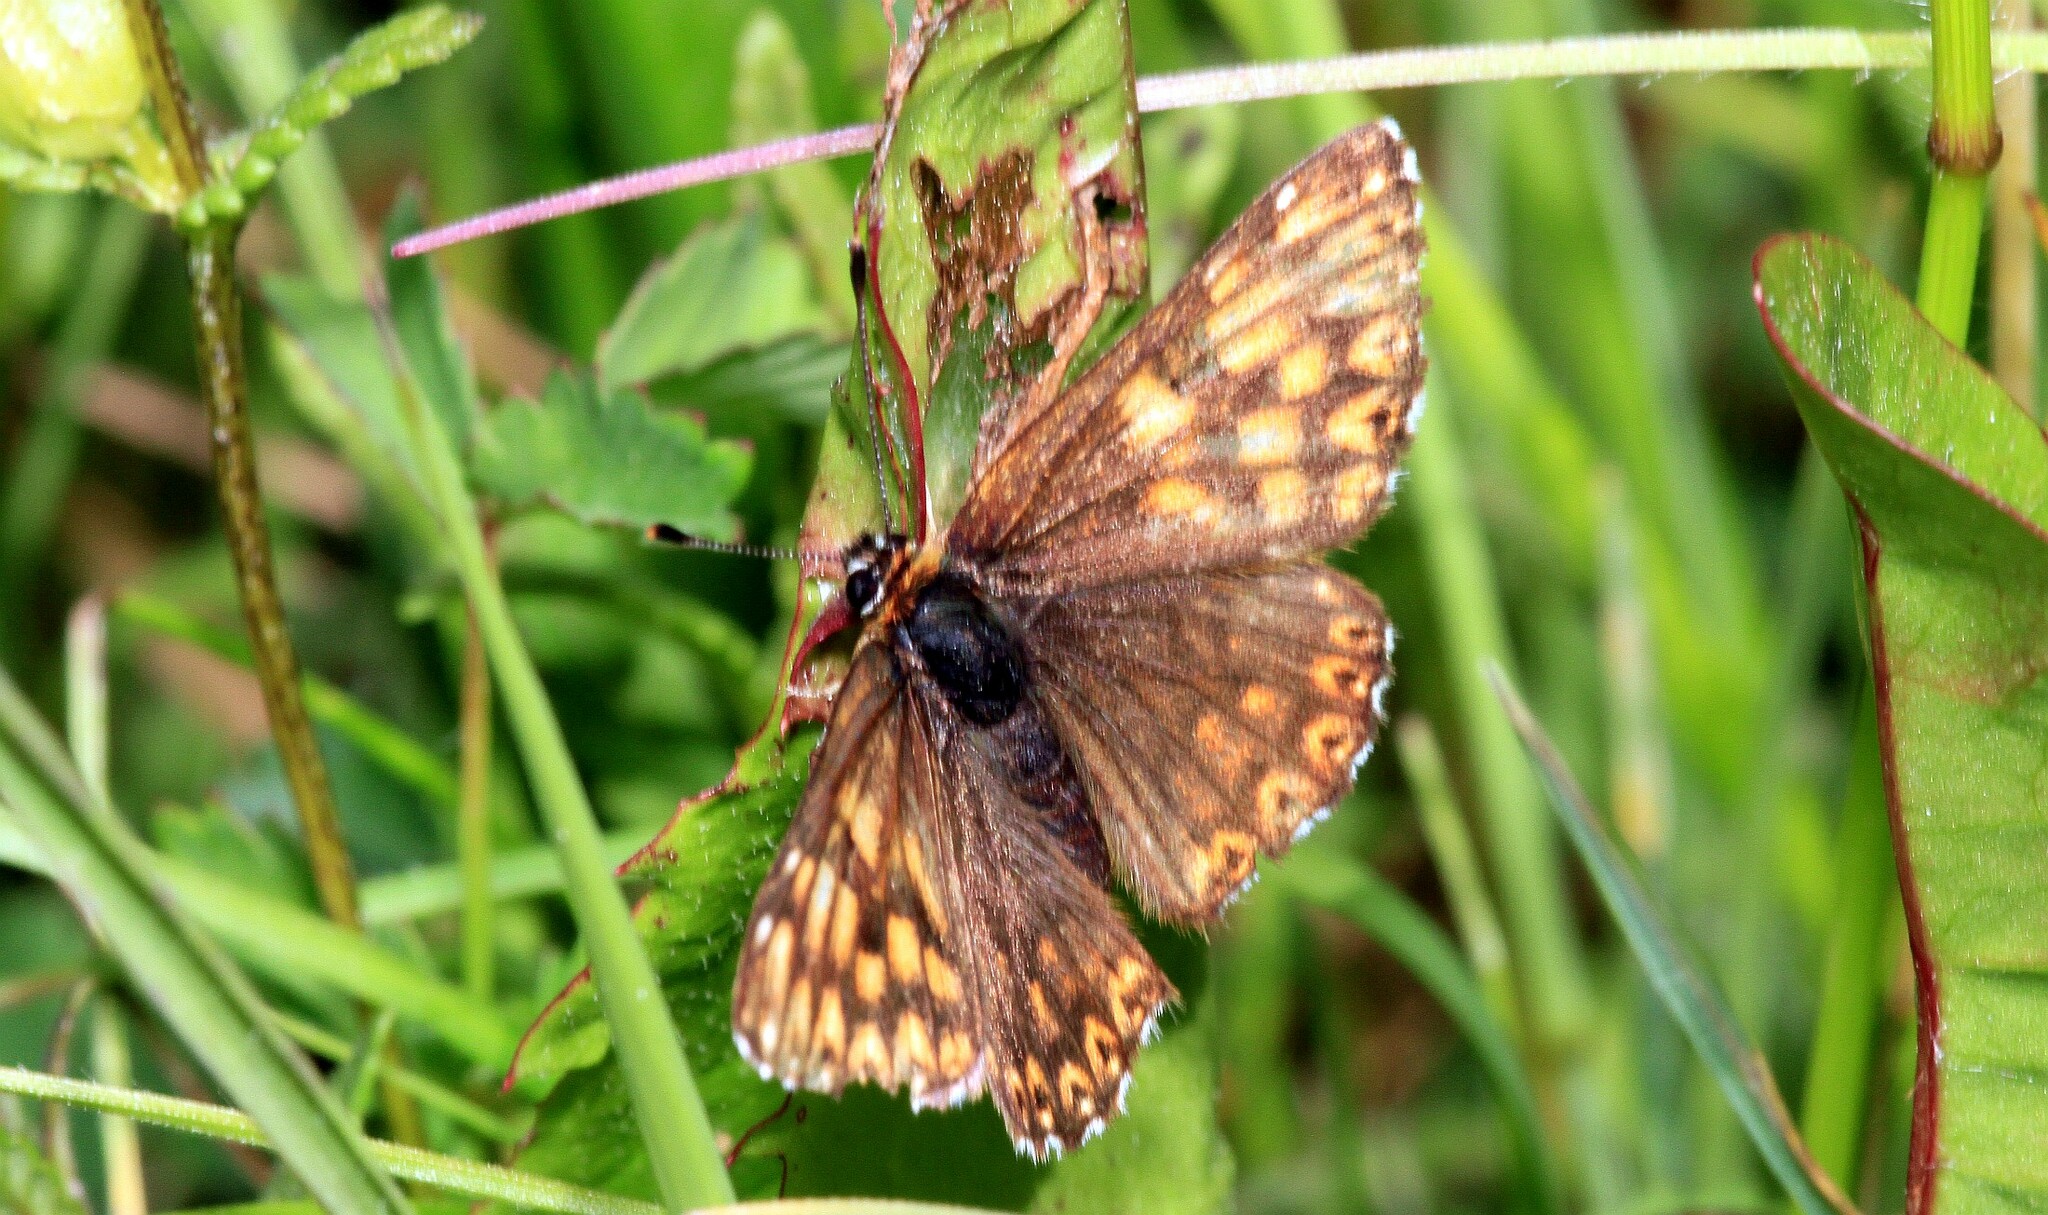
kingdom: Animalia
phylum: Arthropoda
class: Insecta
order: Lepidoptera
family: Riodinidae
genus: Hamearis
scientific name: Hamearis lucina
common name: Duke of burgundy fritillary
